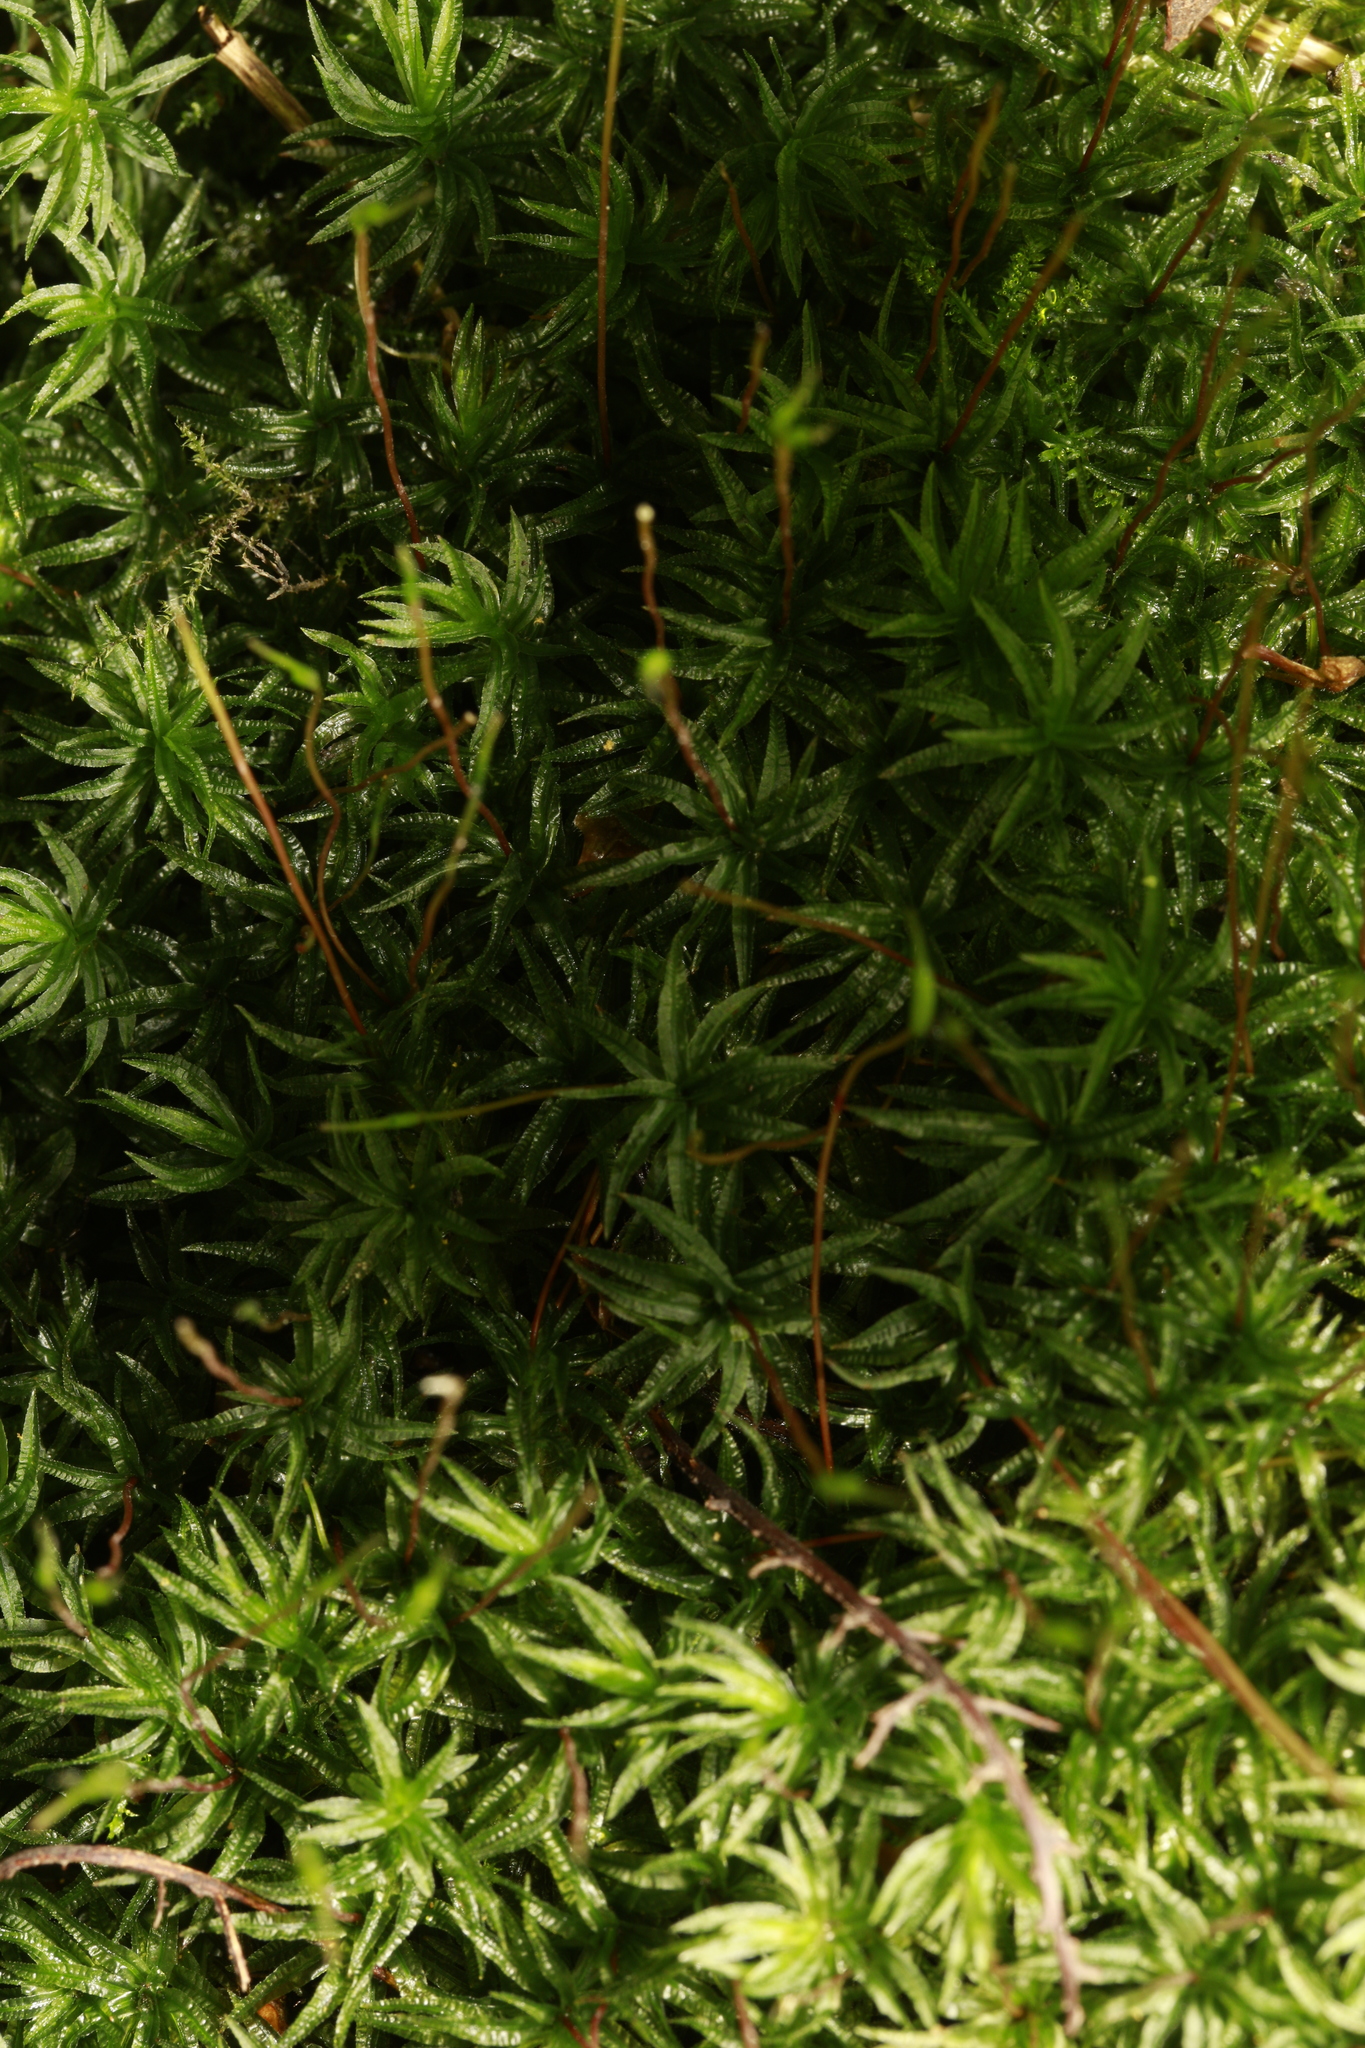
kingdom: Plantae
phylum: Bryophyta
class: Polytrichopsida
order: Polytrichales
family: Polytrichaceae
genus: Atrichum
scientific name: Atrichum undulatum
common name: Common smoothcap
